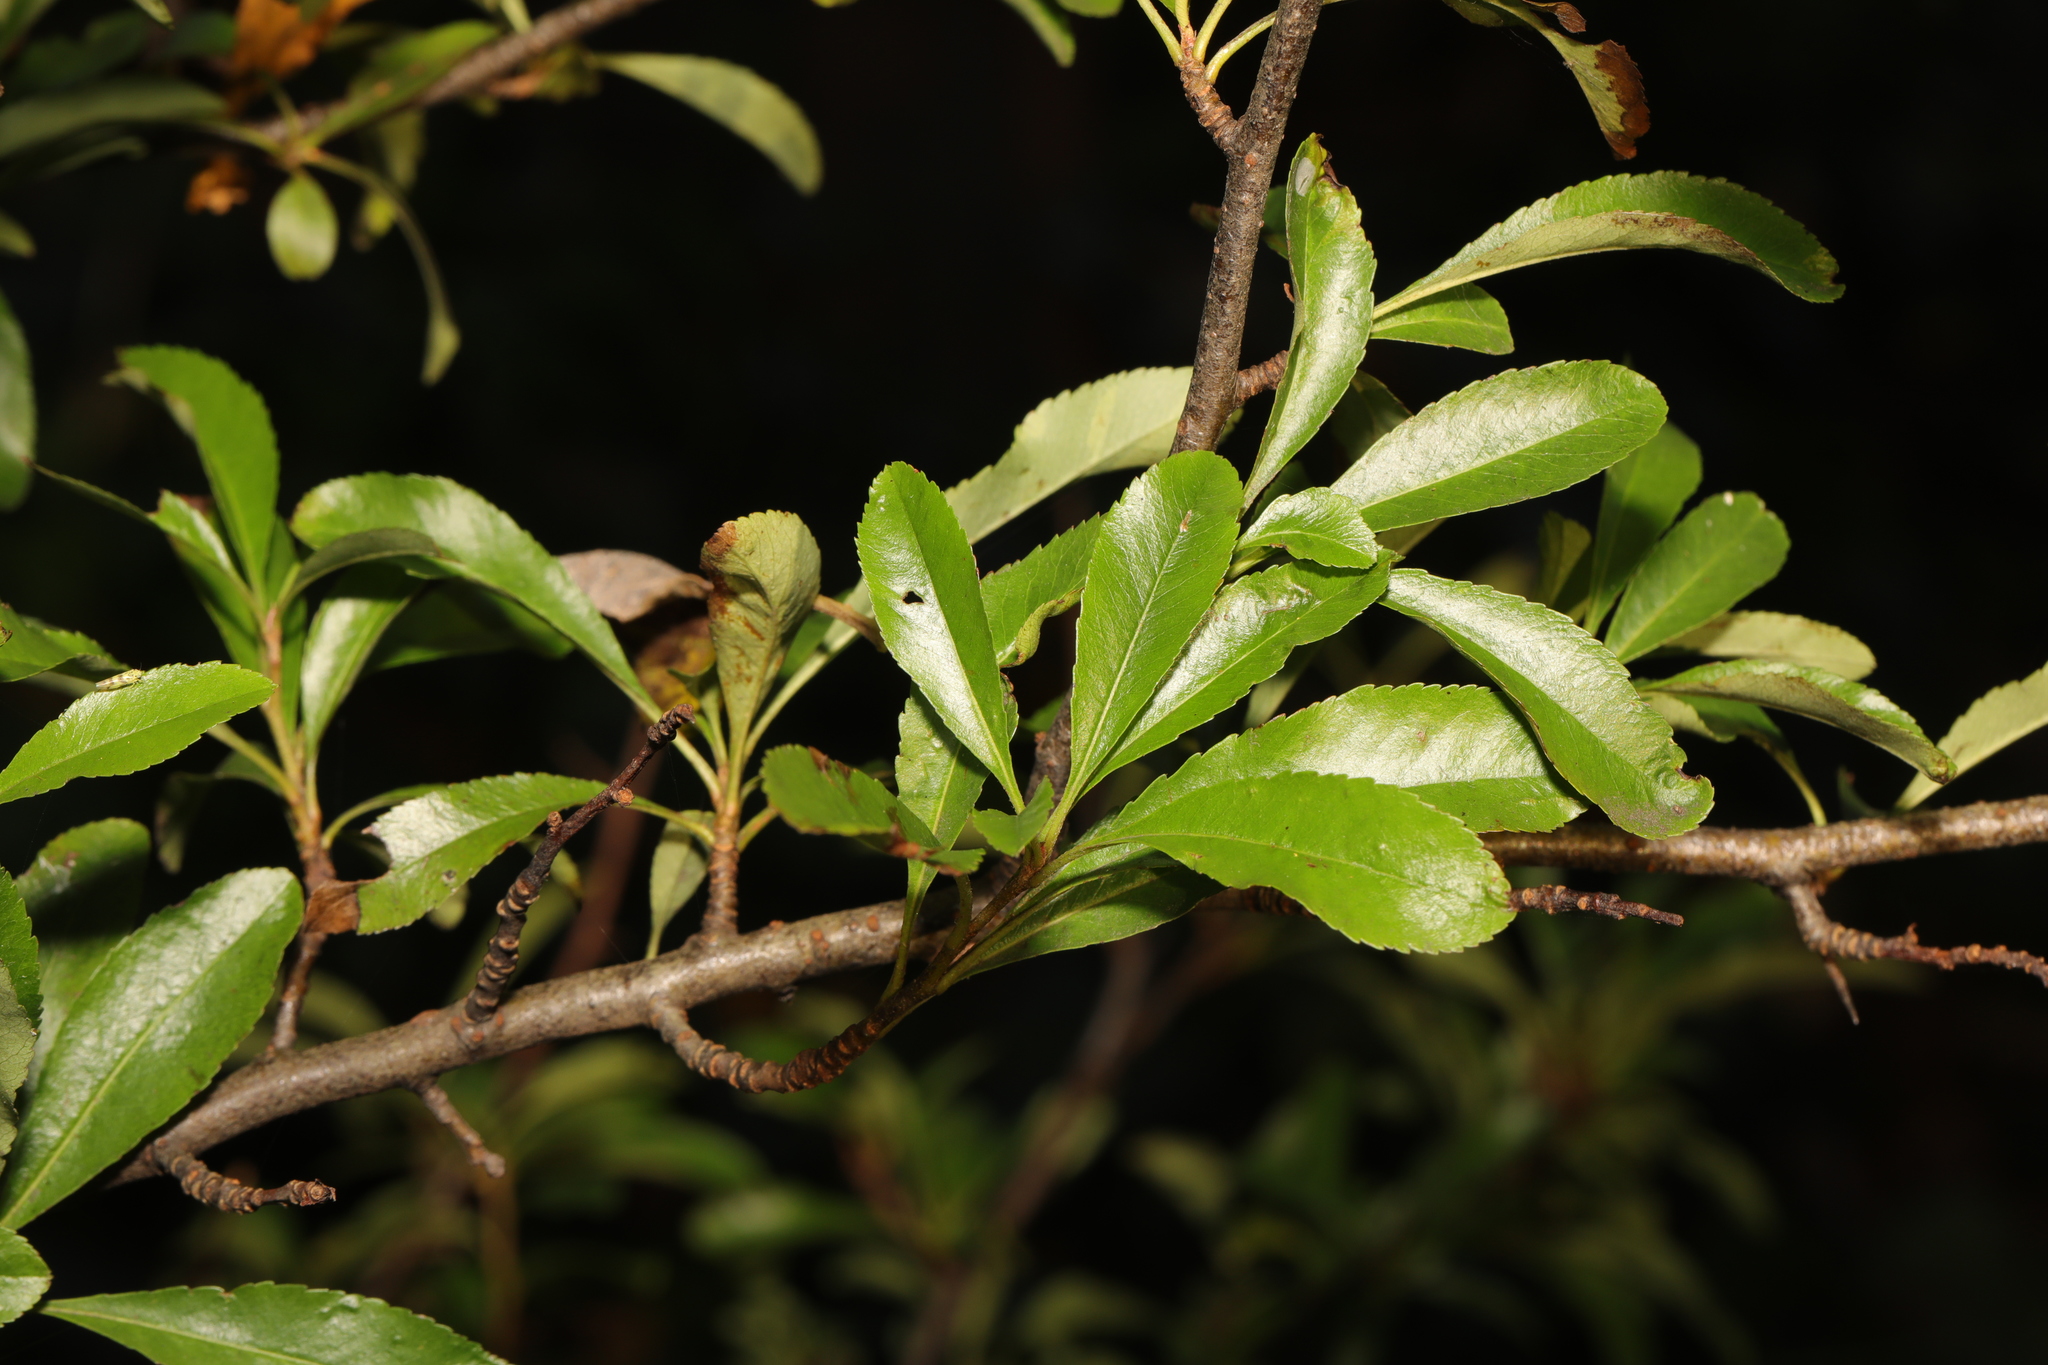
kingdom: Plantae
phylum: Tracheophyta
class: Magnoliopsida
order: Rosales
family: Rosaceae
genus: Pyracantha
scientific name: Pyracantha coccinea
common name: Firethorn
